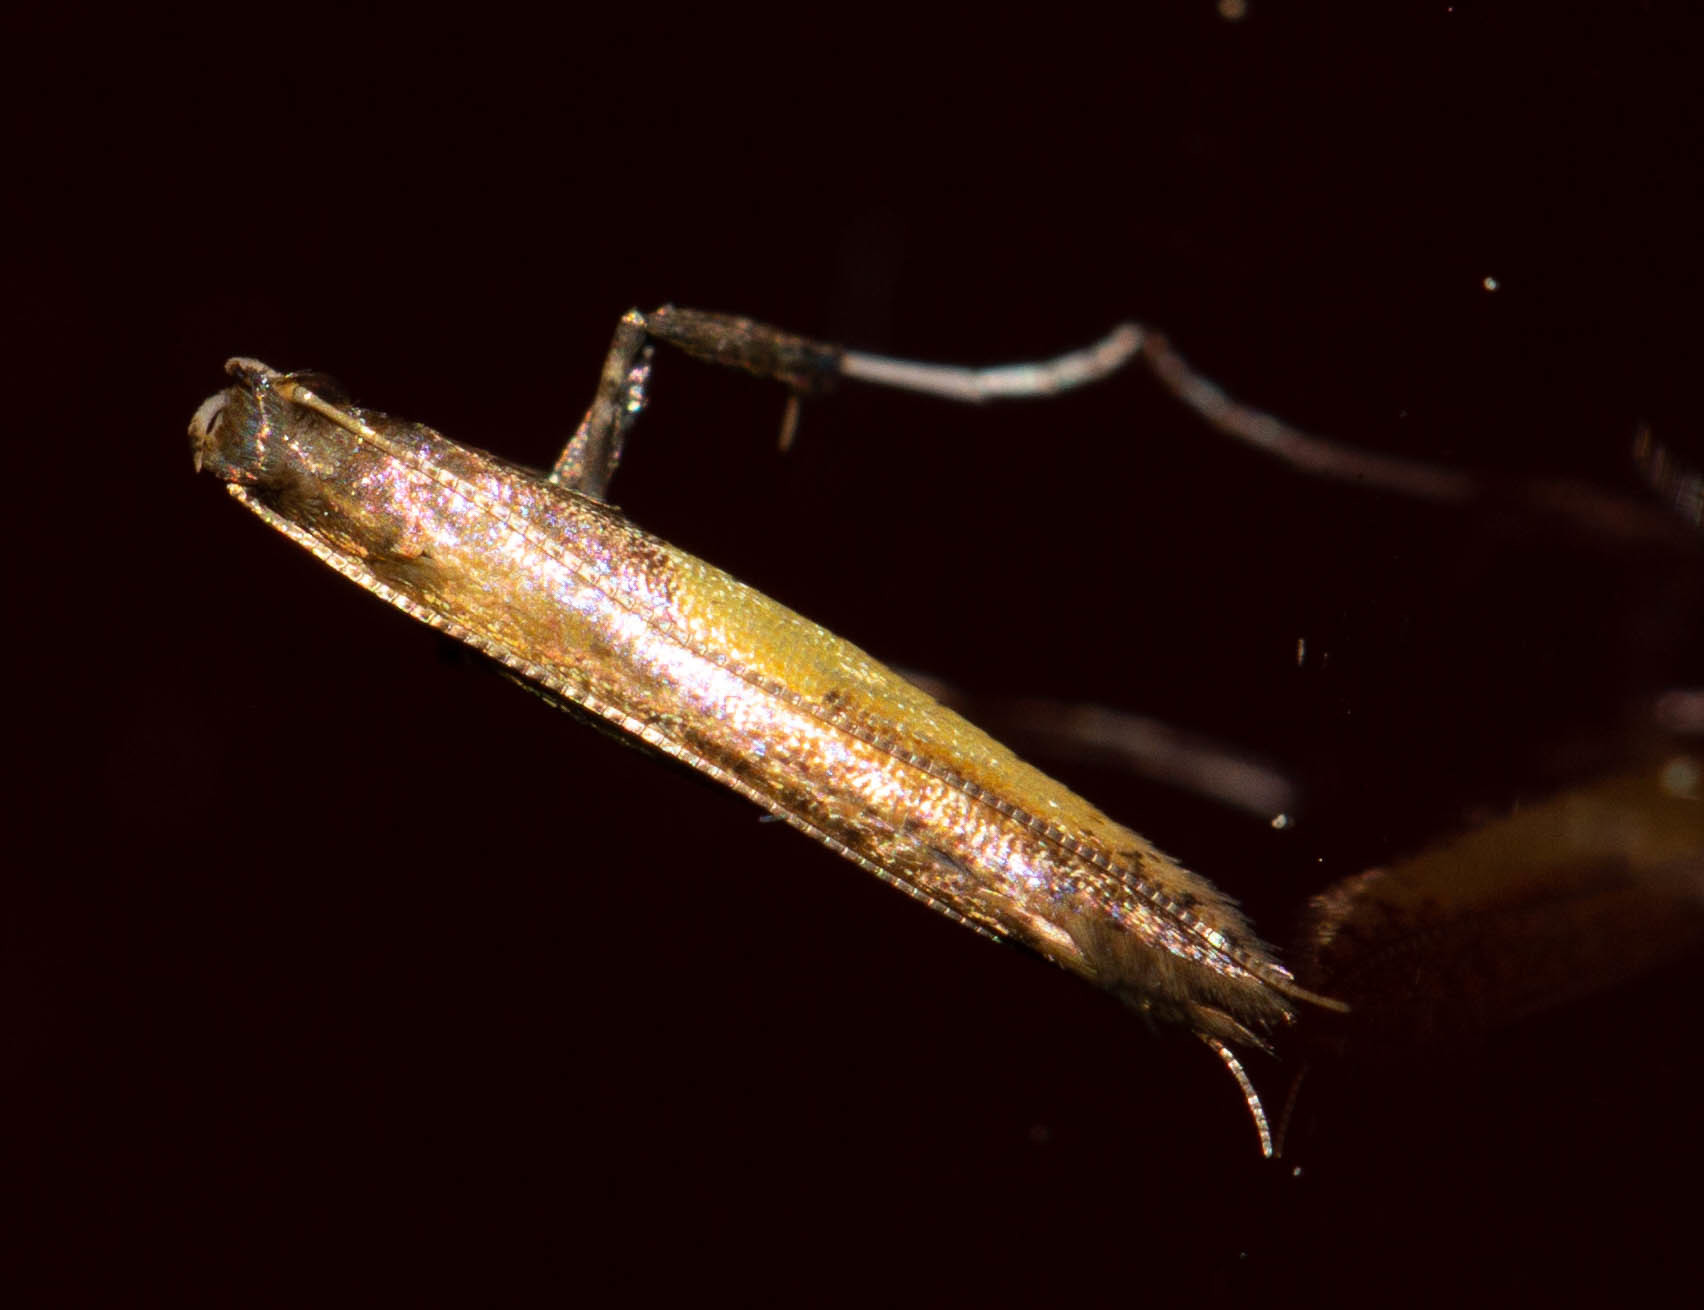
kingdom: Animalia
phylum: Arthropoda
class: Insecta
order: Lepidoptera
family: Gracillariidae
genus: Caloptilia
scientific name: Caloptilia azaleella
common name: Azalea leafminer
